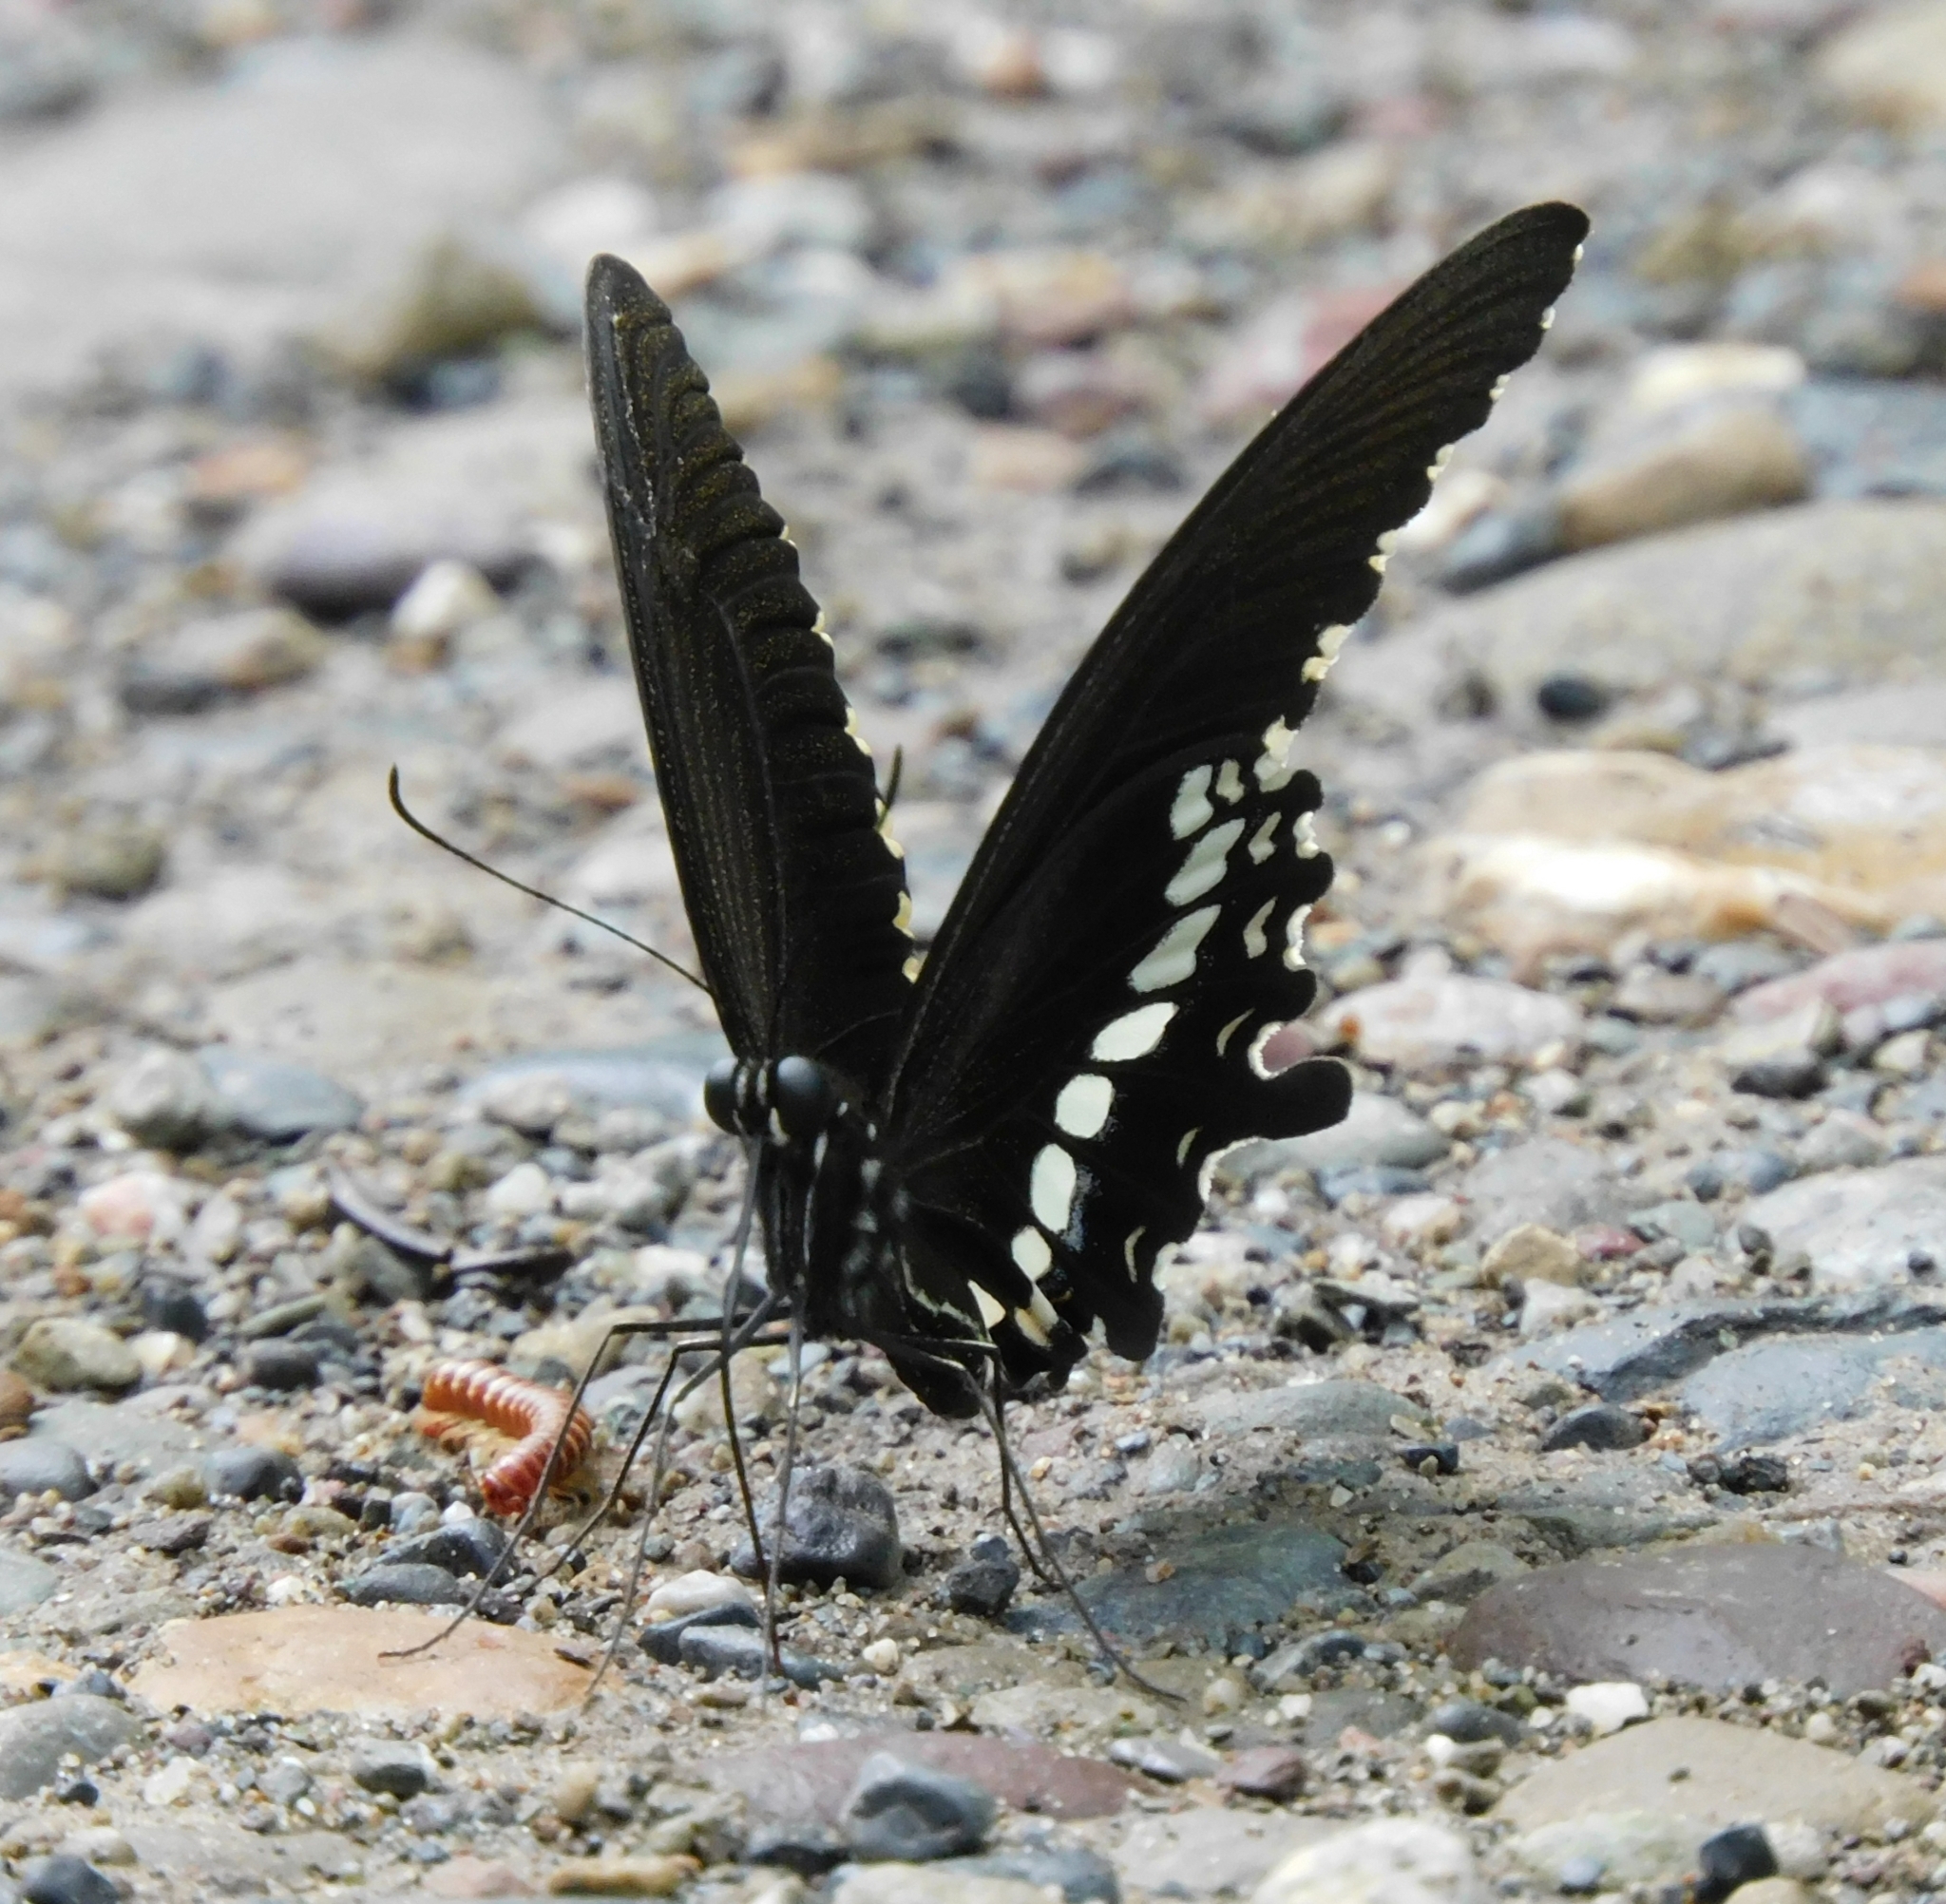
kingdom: Animalia
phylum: Arthropoda
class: Insecta
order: Lepidoptera
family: Papilionidae
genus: Papilio
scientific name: Papilio polytes
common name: Common mormon
